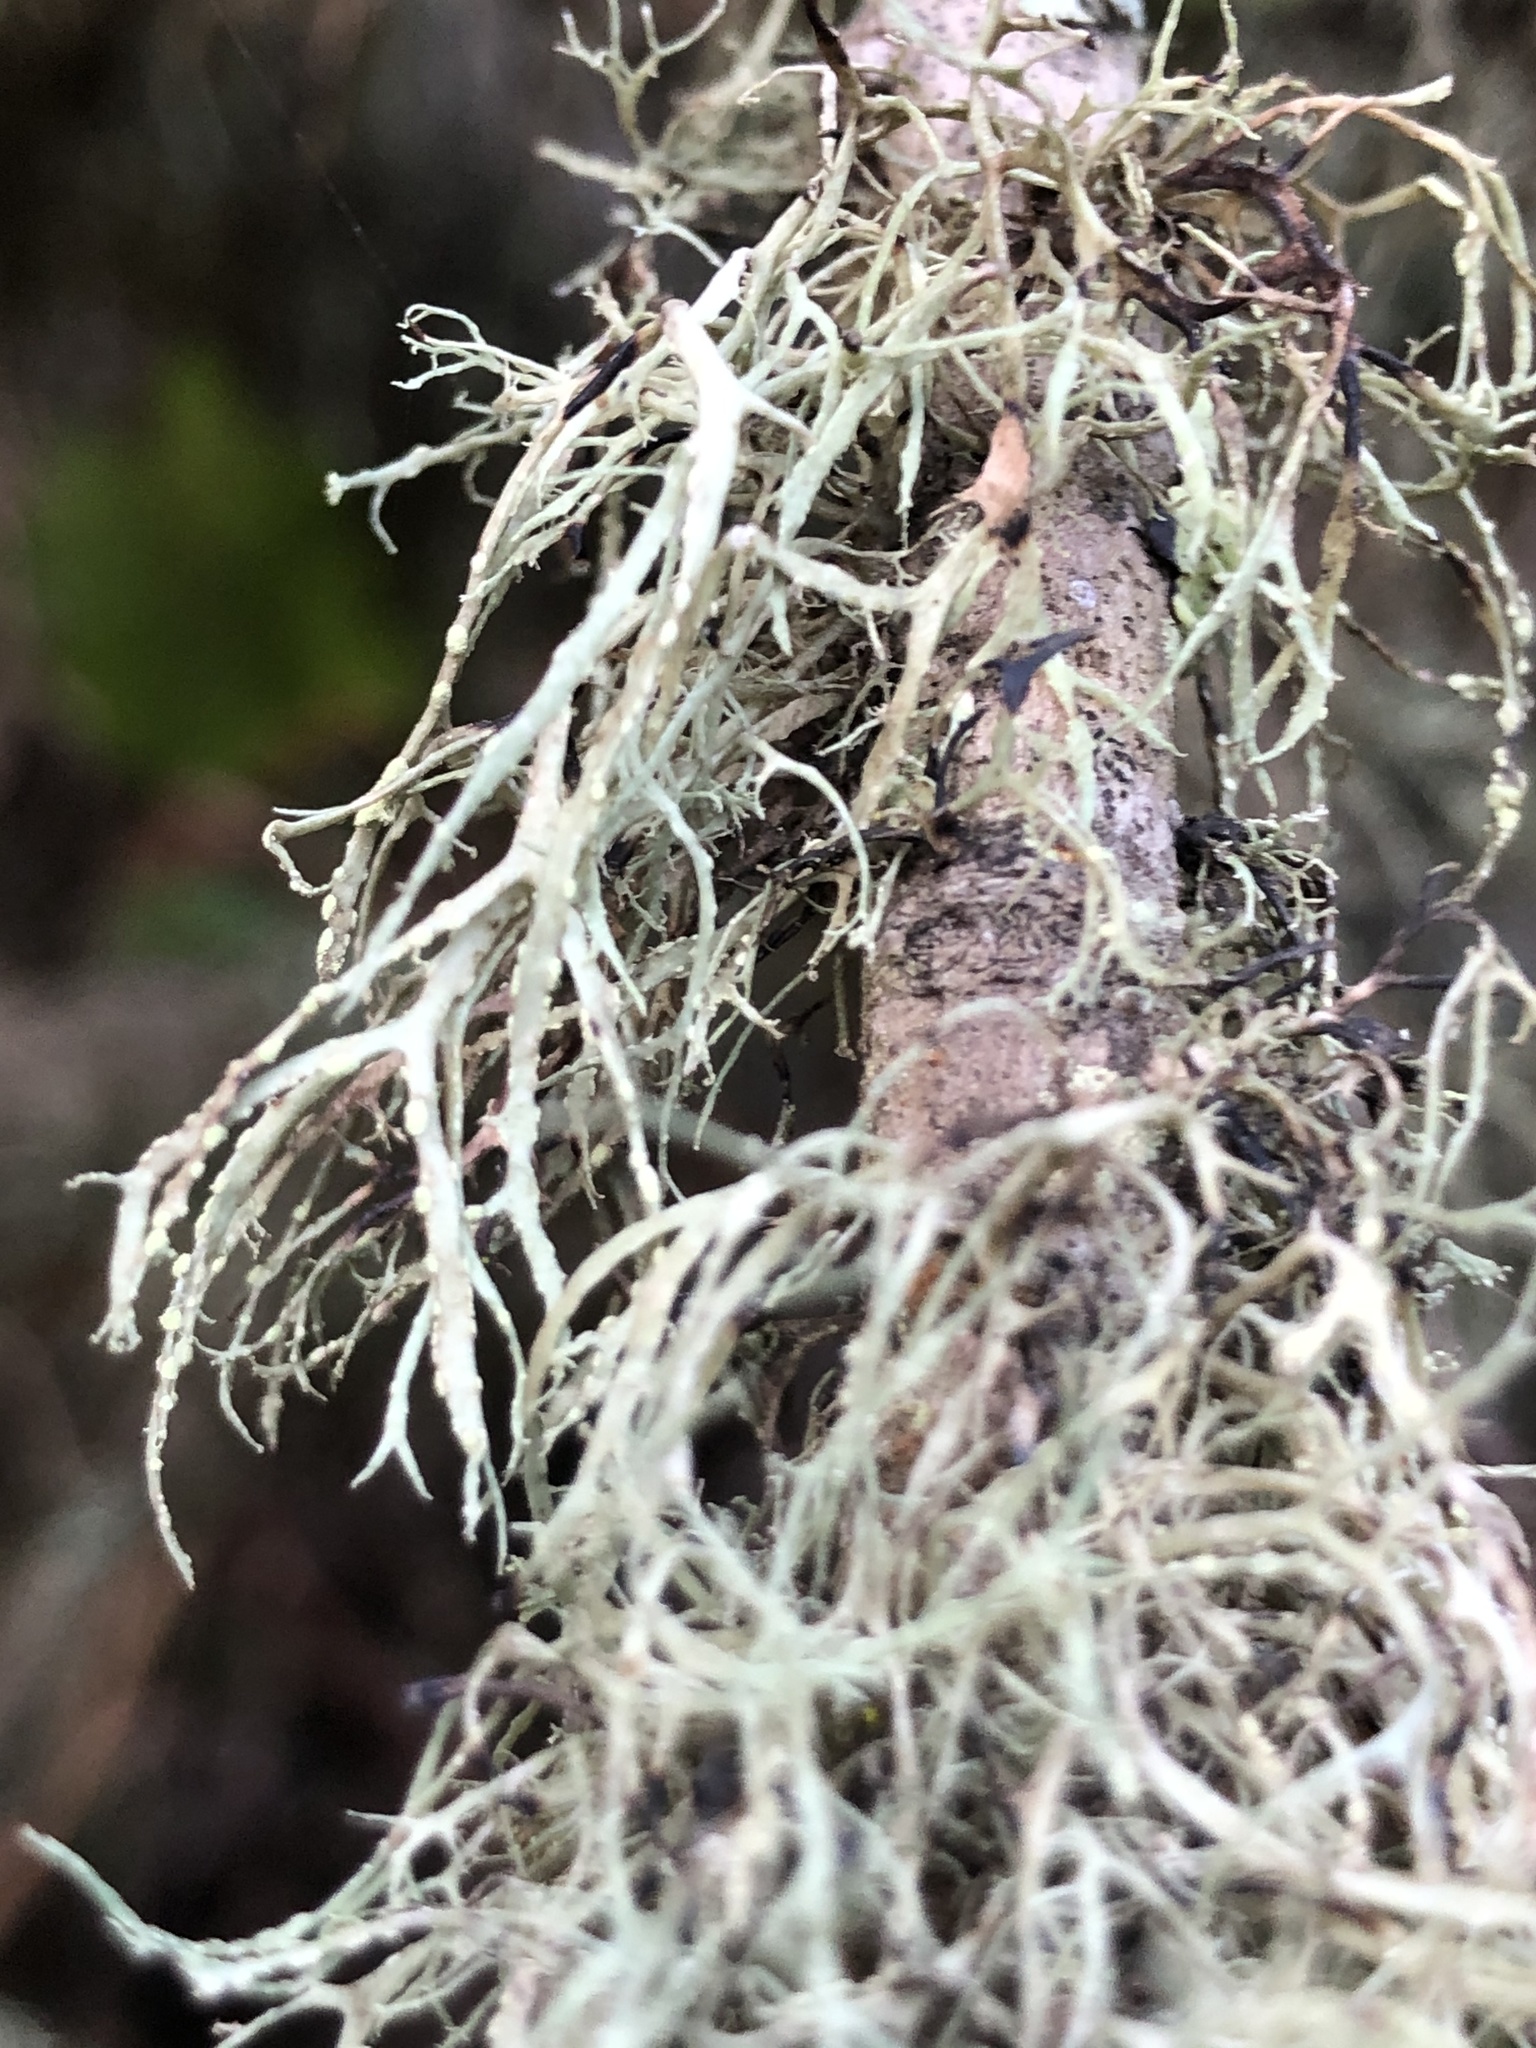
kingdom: Fungi
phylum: Ascomycota
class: Lecanoromycetes
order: Lecanorales
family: Ramalinaceae
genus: Ramalina
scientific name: Ramalina farinacea
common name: Farinose cartilage lichen
